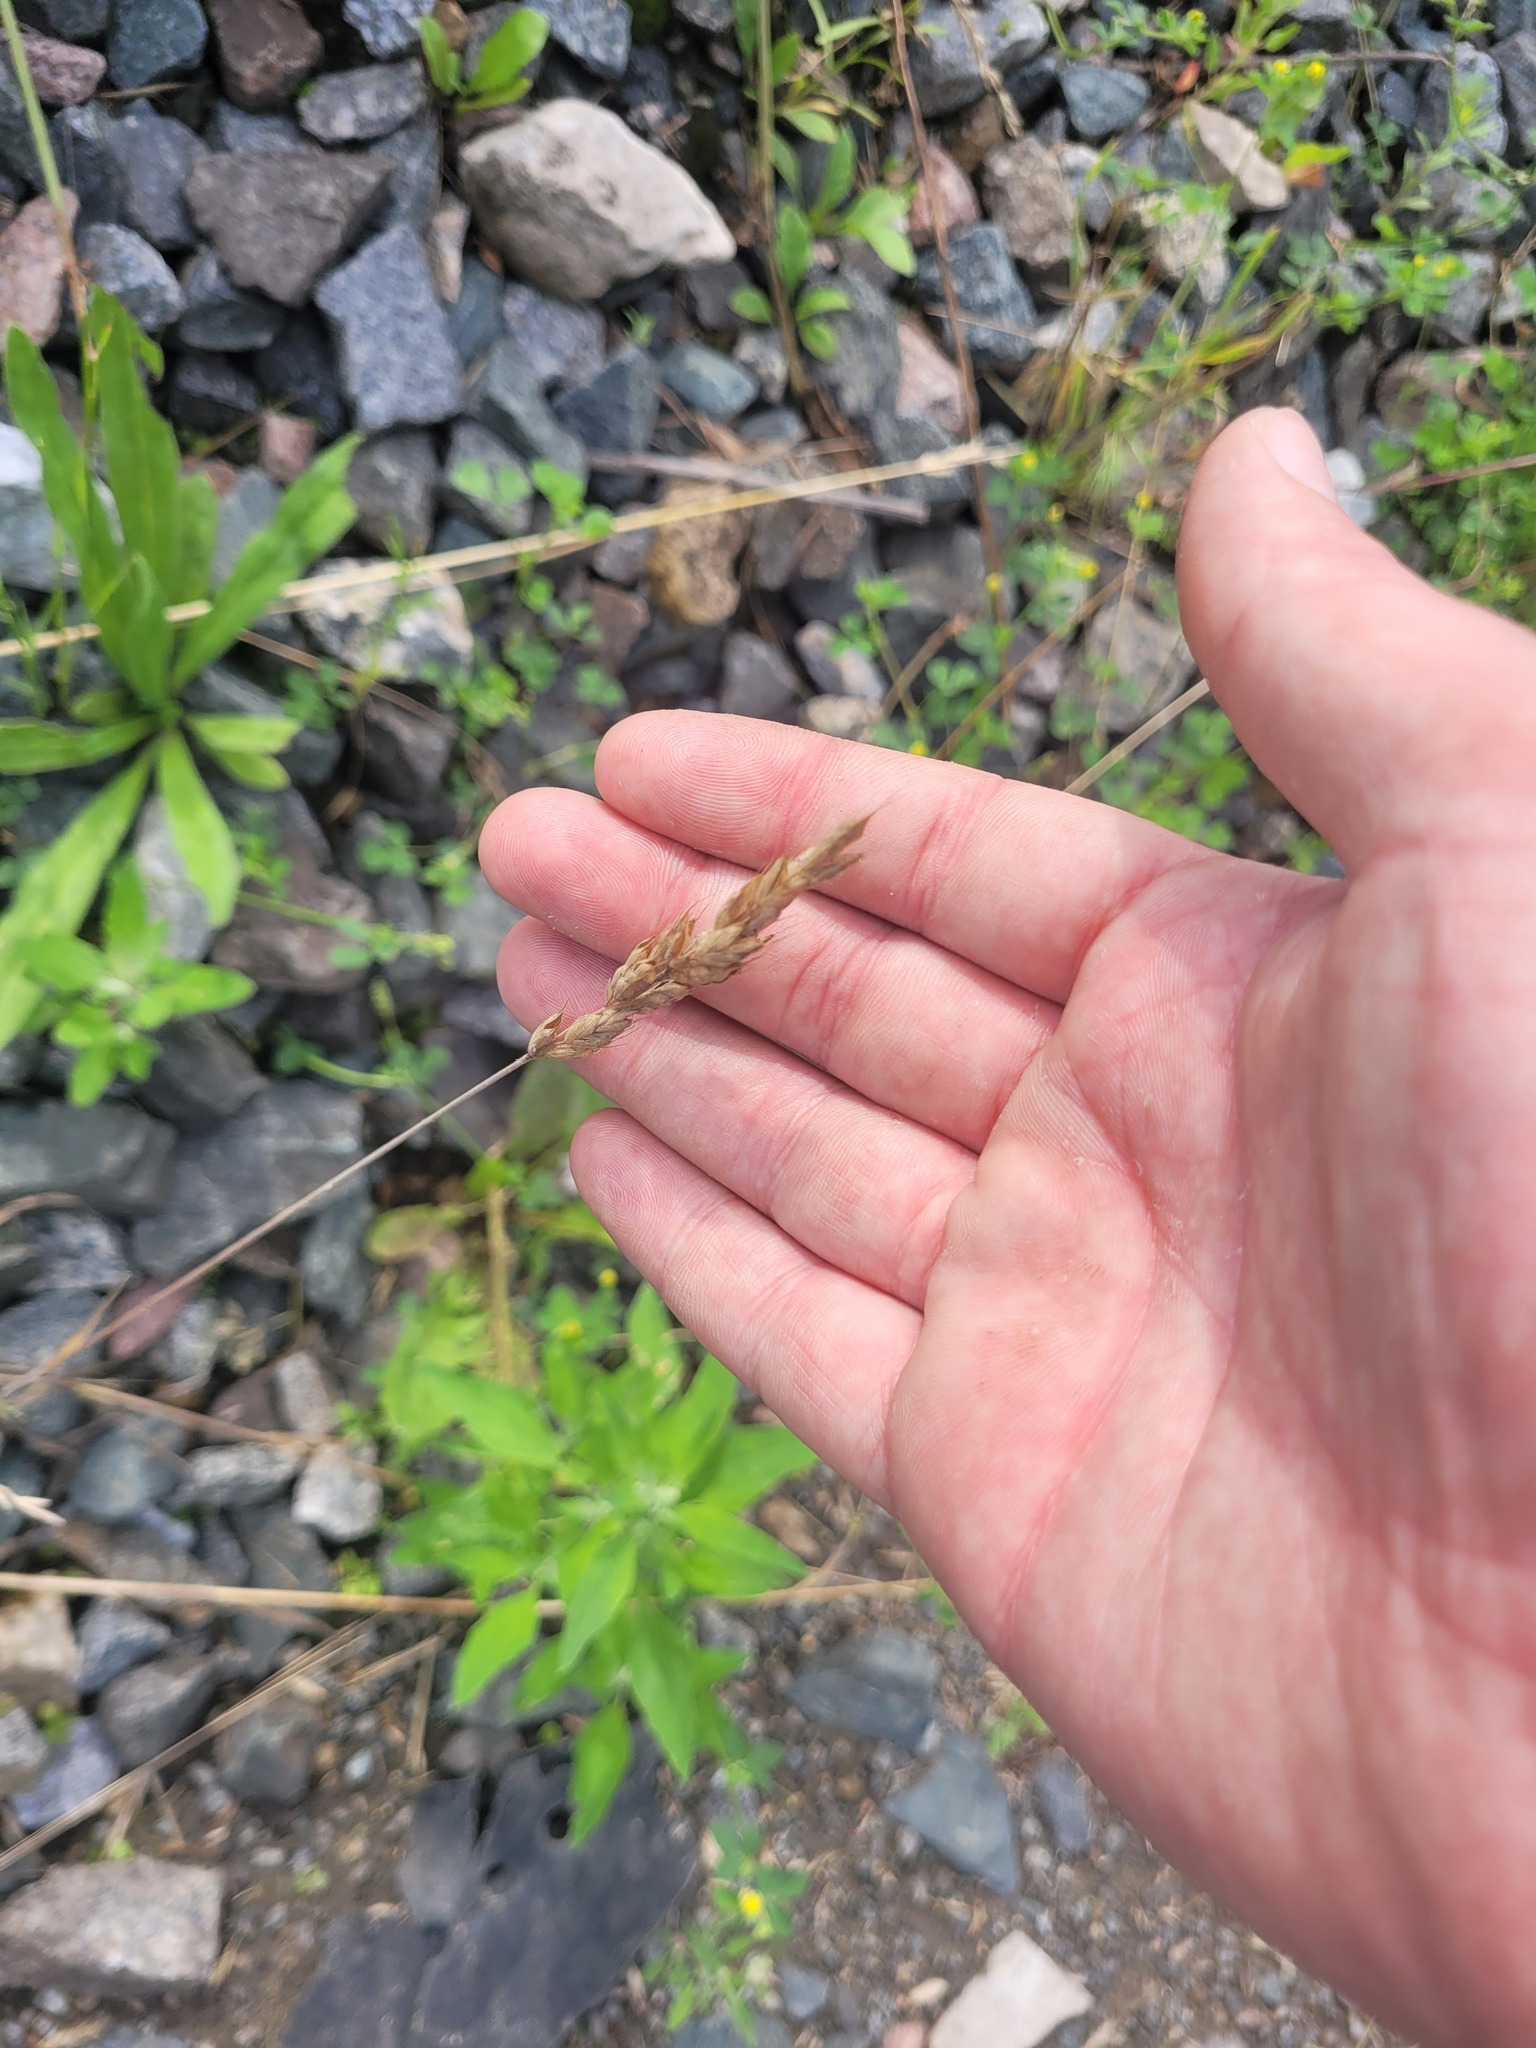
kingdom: Plantae
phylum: Tracheophyta
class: Liliopsida
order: Poales
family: Poaceae
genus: Bromus
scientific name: Bromus hordeaceus
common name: Soft brome
